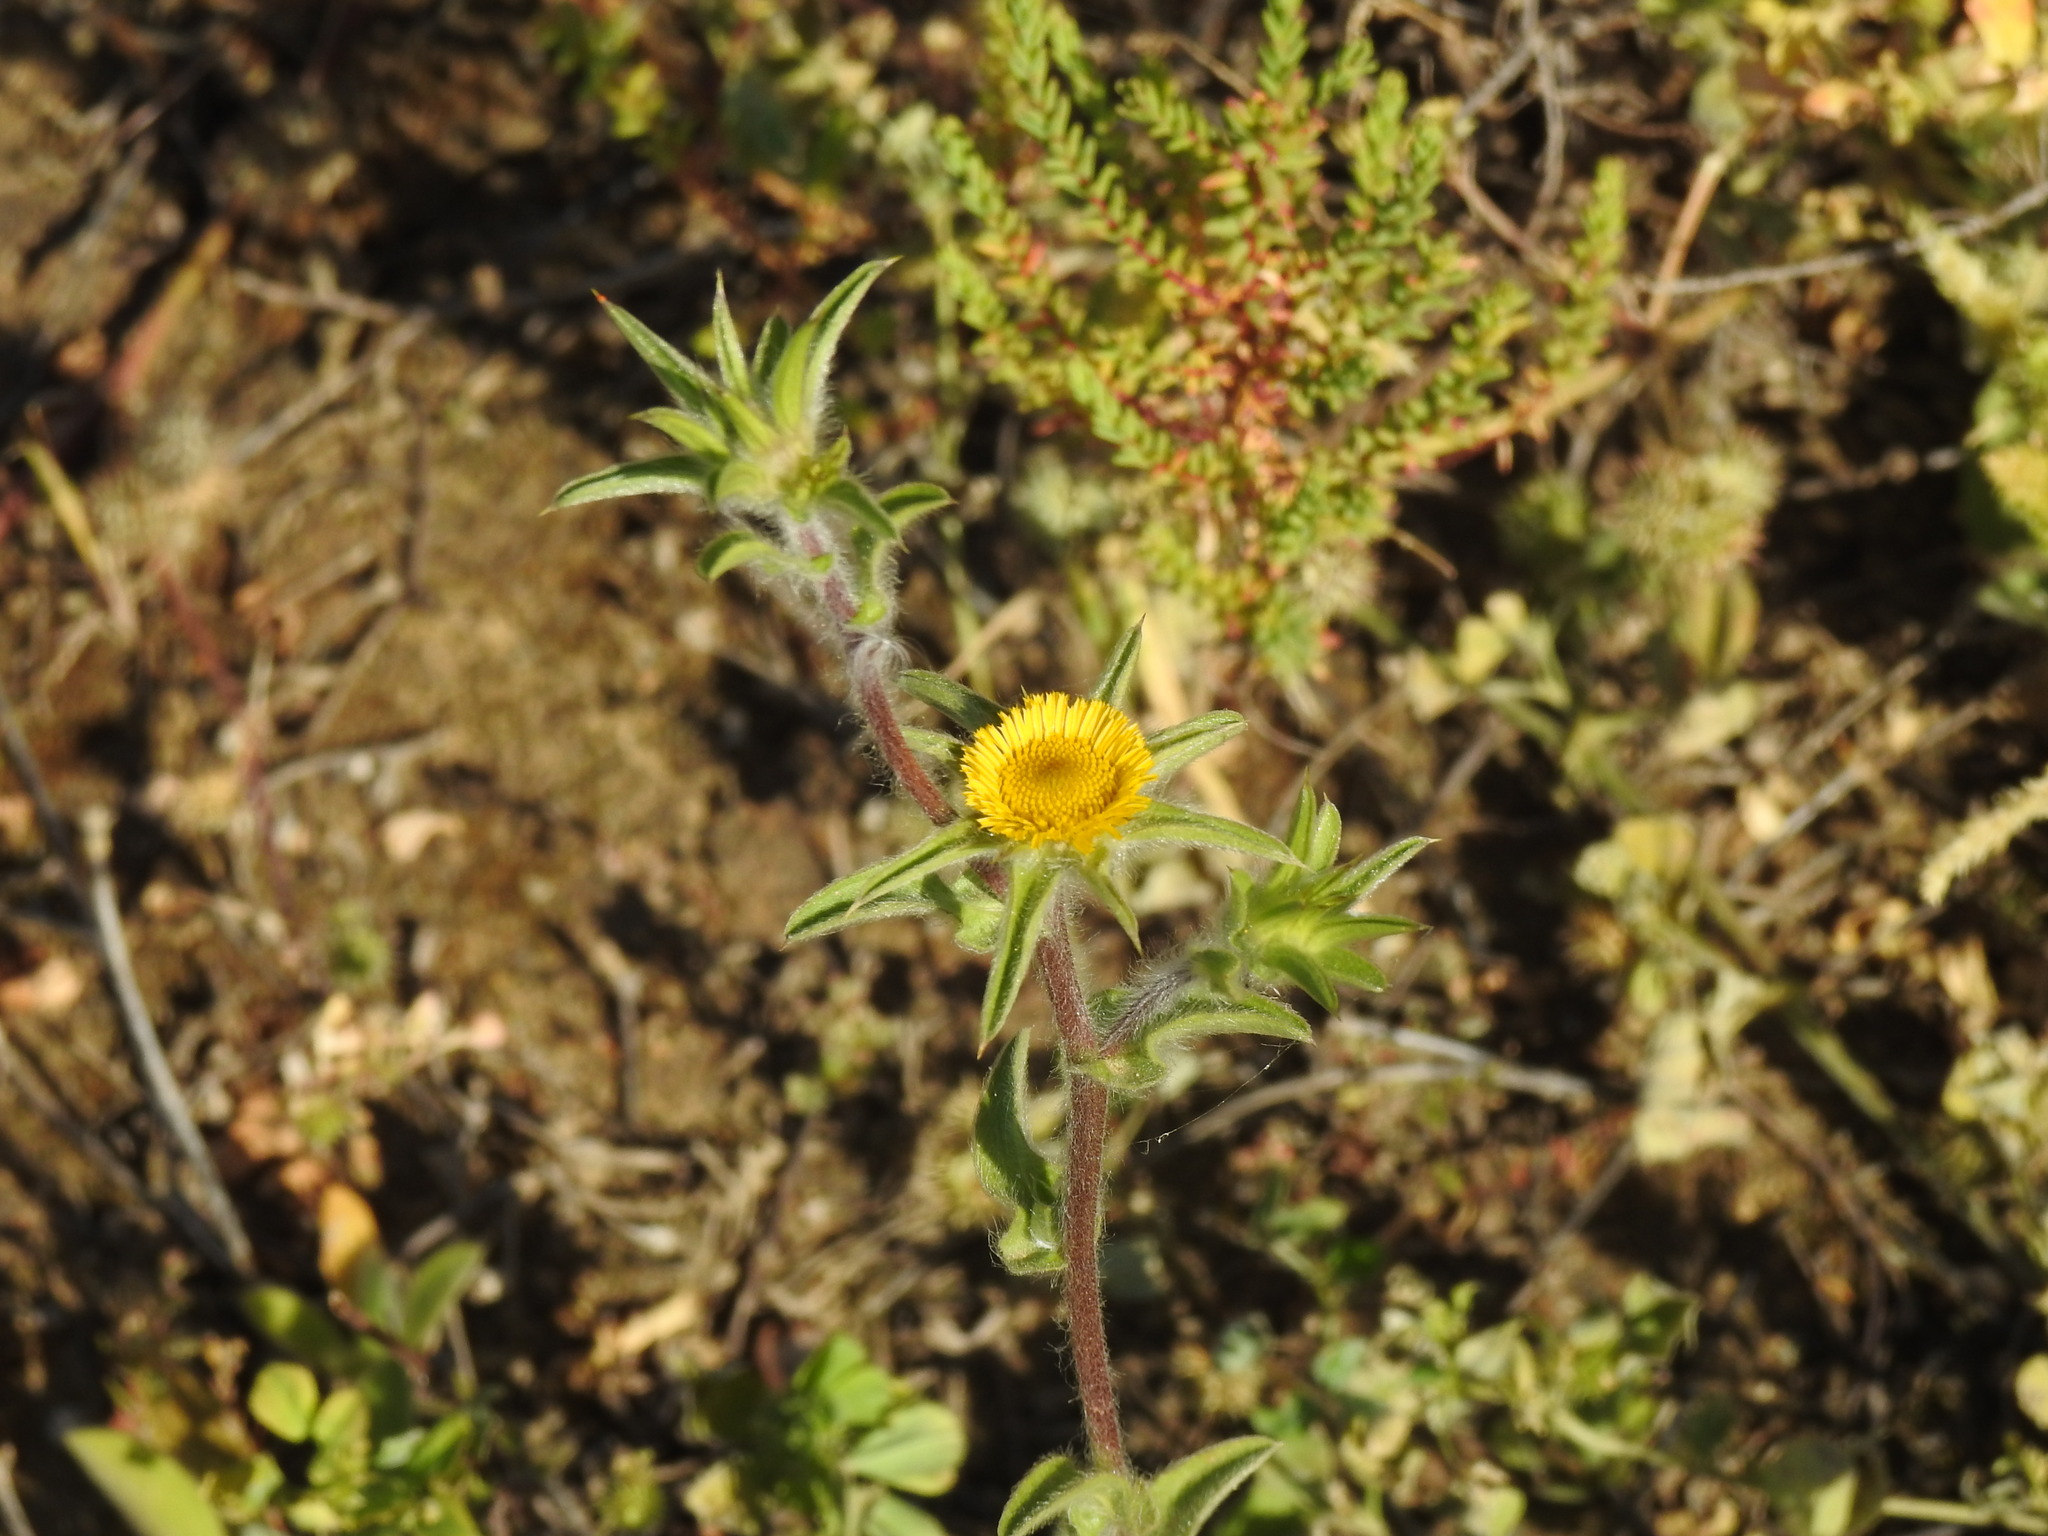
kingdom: Plantae
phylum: Tracheophyta
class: Magnoliopsida
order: Asterales
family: Asteraceae
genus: Pallenis
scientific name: Pallenis spinosa
